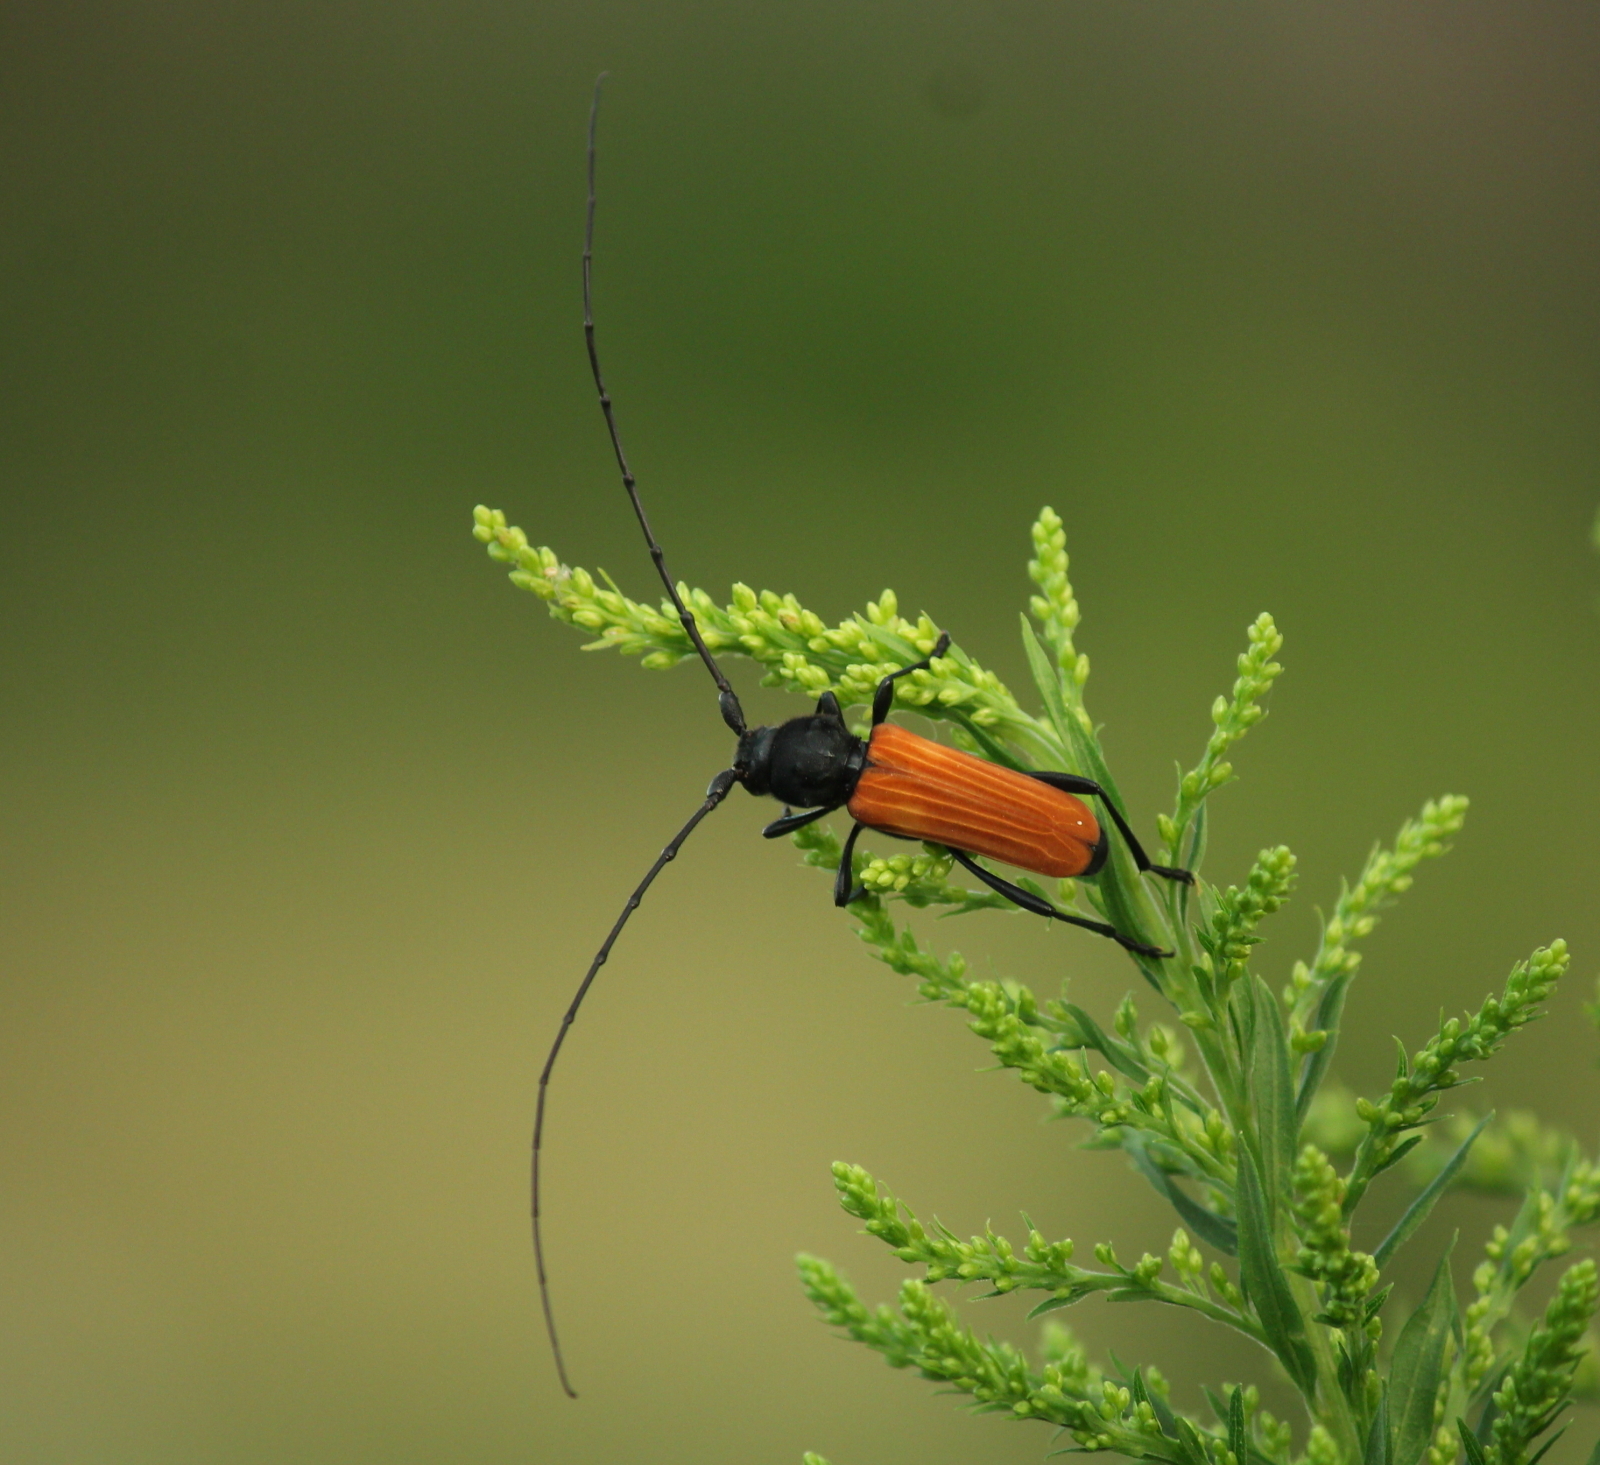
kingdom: Animalia
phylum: Arthropoda
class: Insecta
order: Coleoptera
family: Cerambycidae
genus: Tragidion
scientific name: Tragidion coquus
